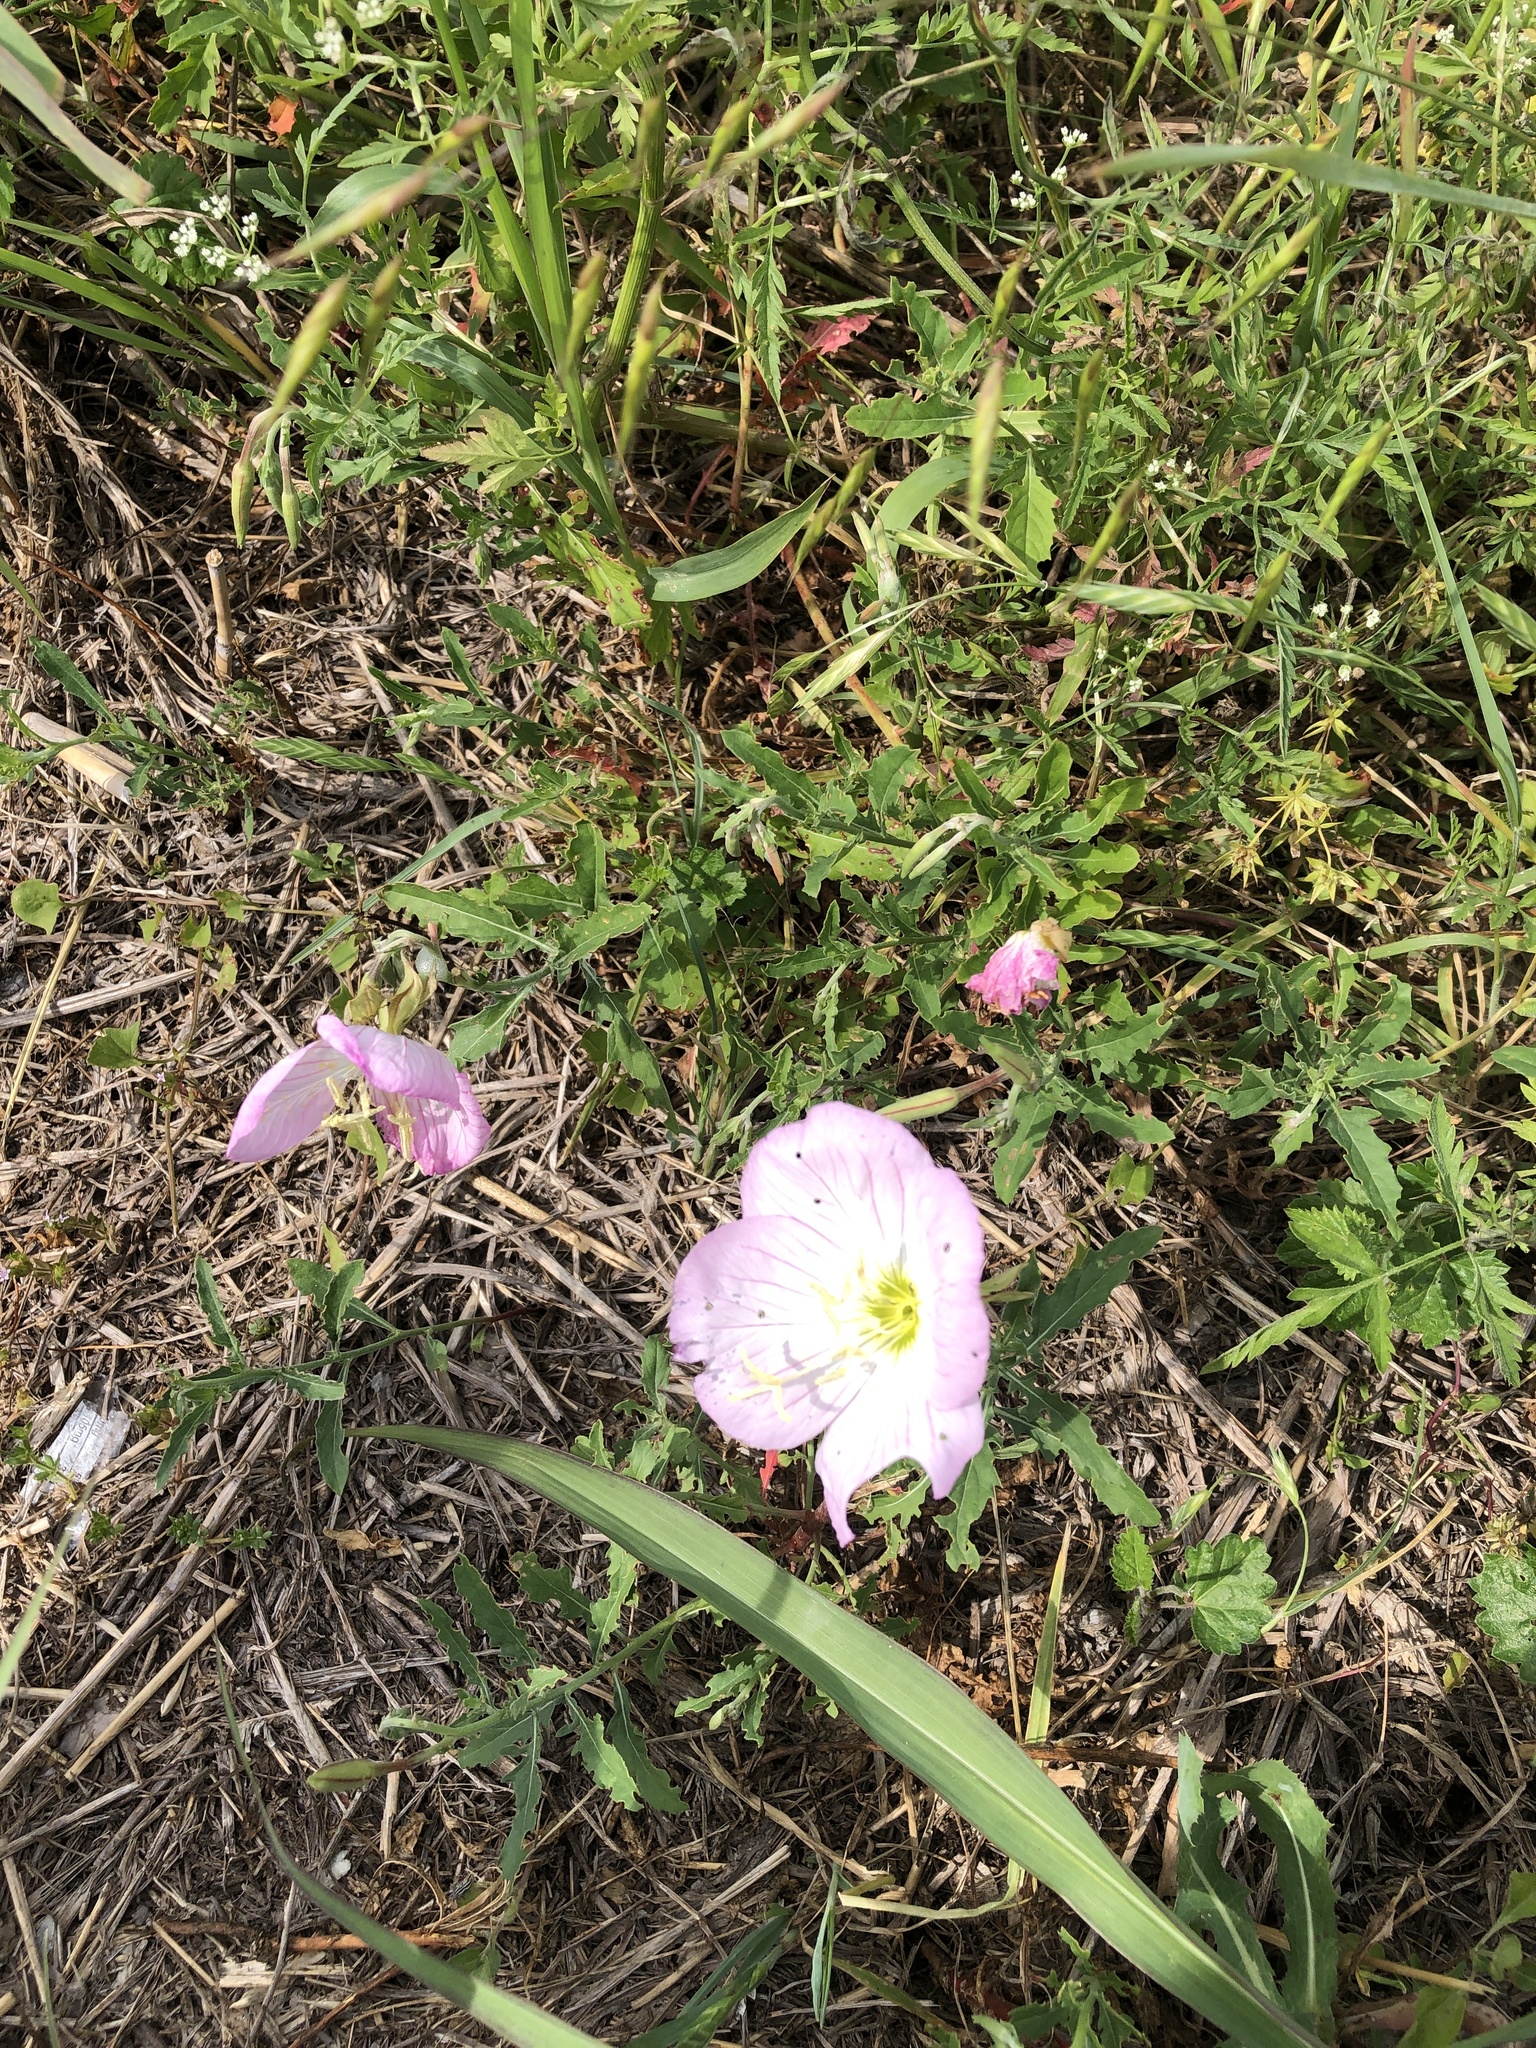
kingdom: Plantae
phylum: Tracheophyta
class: Magnoliopsida
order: Myrtales
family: Onagraceae
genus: Oenothera
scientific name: Oenothera speciosa
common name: White evening-primrose
